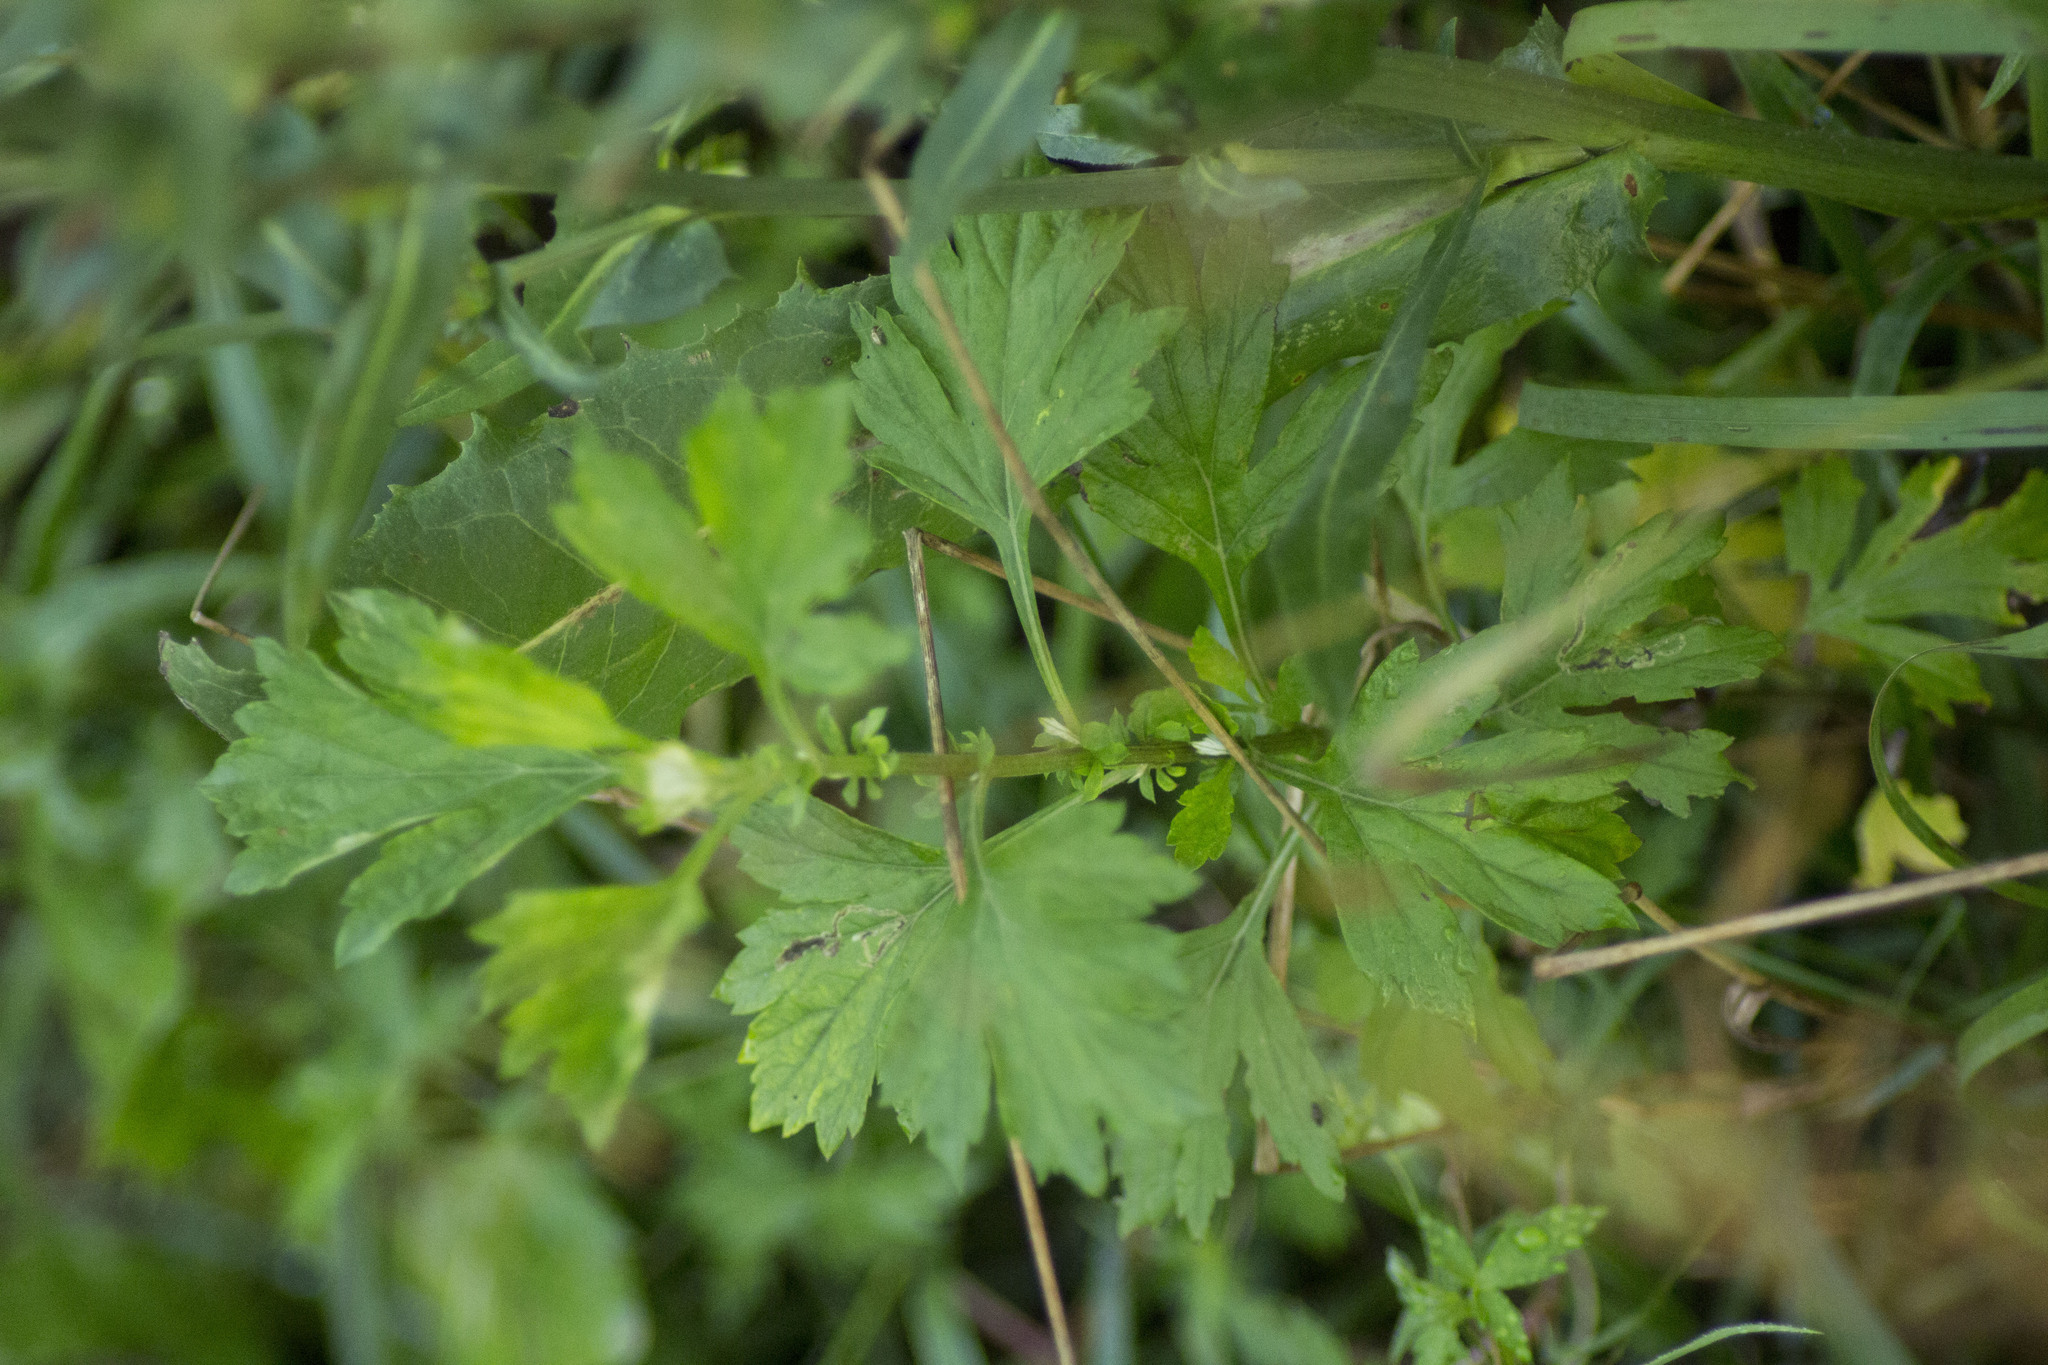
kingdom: Plantae
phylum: Tracheophyta
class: Magnoliopsida
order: Asterales
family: Asteraceae
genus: Artemisia
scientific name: Artemisia vulgaris
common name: Mugwort
